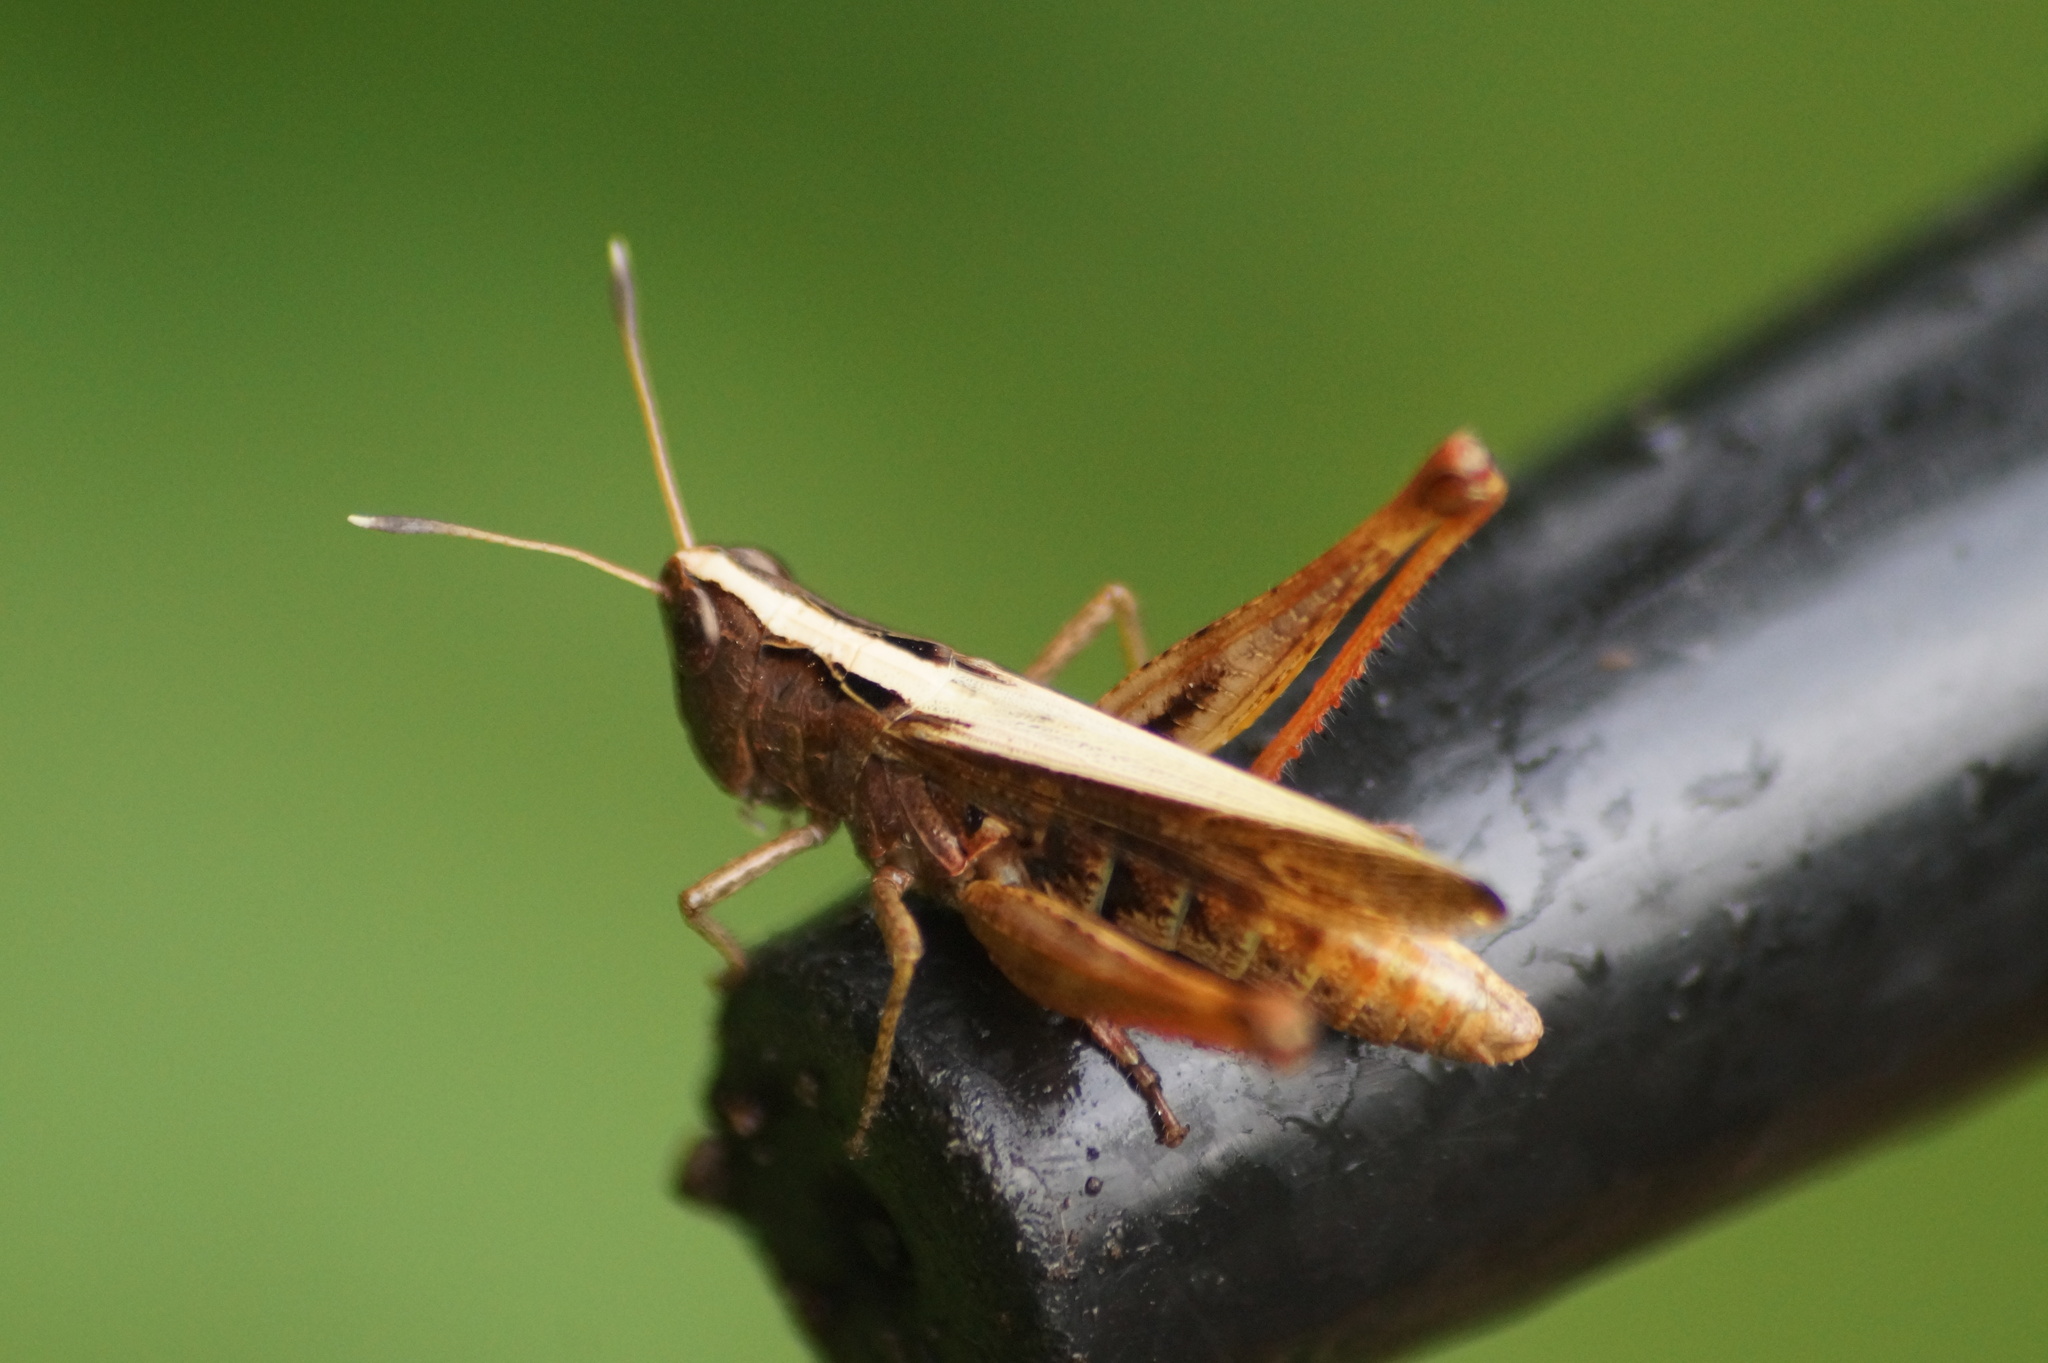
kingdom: Animalia
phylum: Arthropoda
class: Insecta
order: Orthoptera
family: Acrididae
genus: Gomphocerippus
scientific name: Gomphocerippus rufus
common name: Rufous grasshopper
